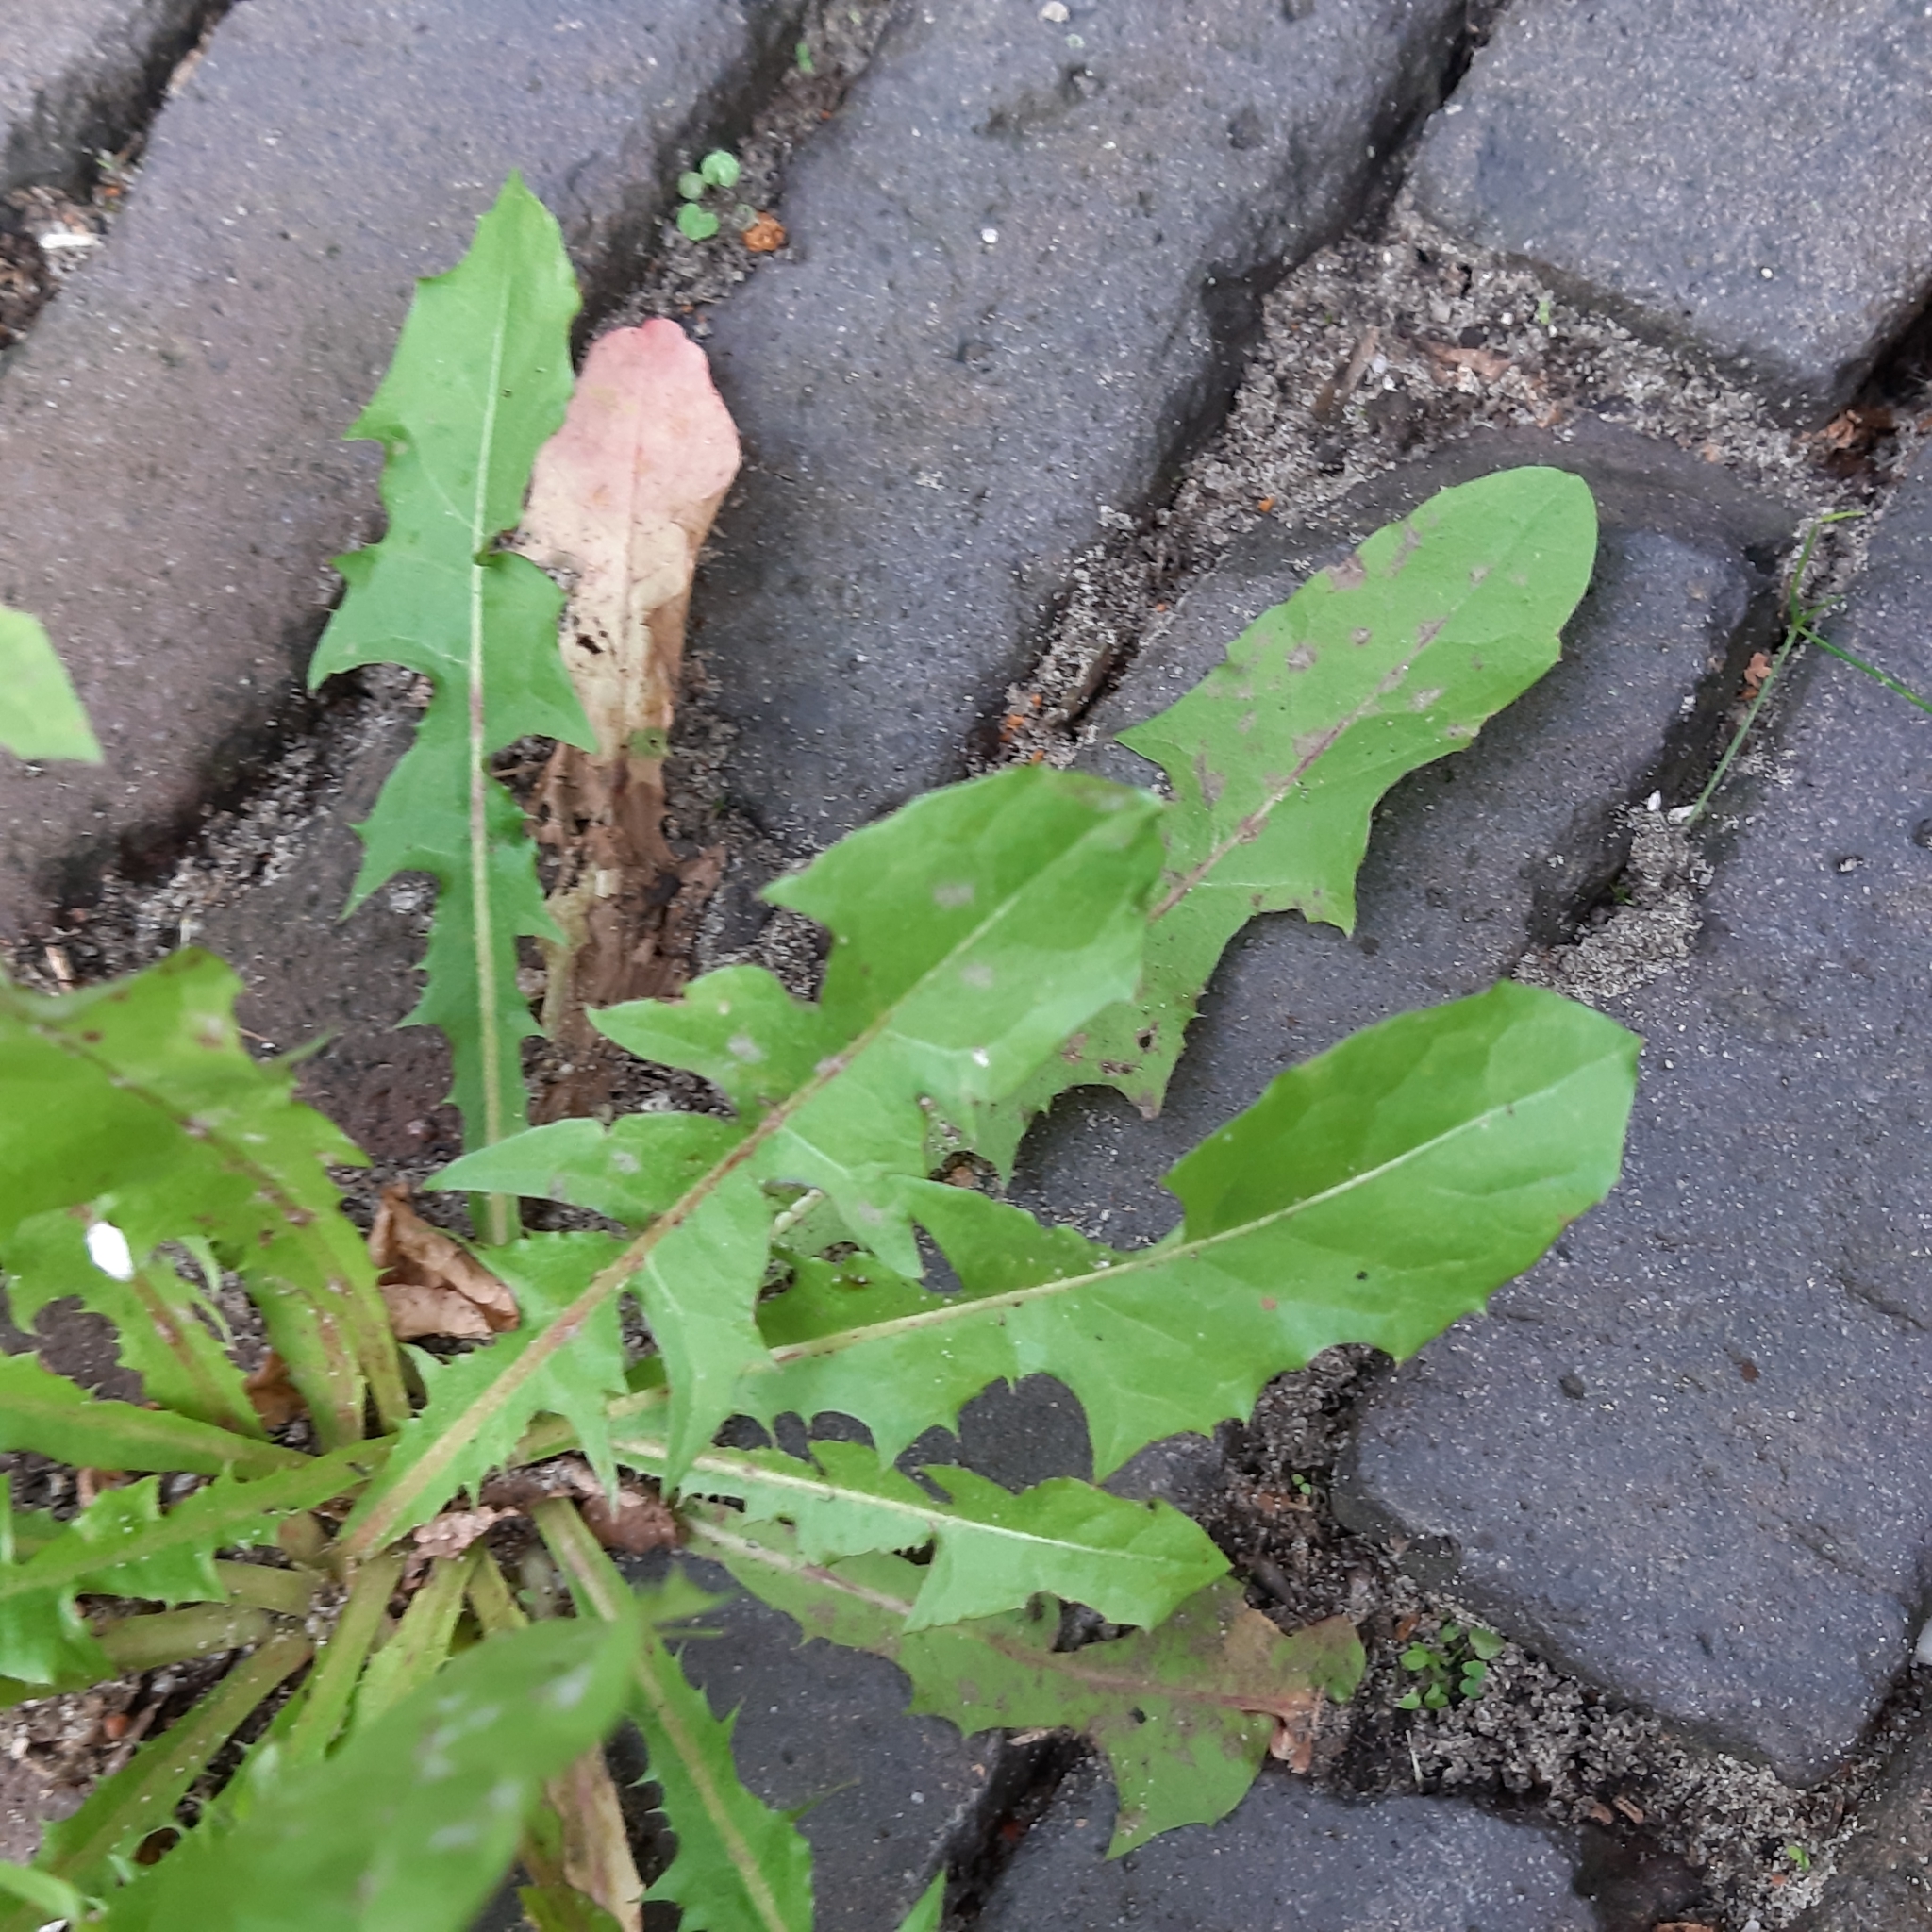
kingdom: Plantae
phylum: Tracheophyta
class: Magnoliopsida
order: Asterales
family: Asteraceae
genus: Taraxacum
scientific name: Taraxacum officinale
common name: Common dandelion
